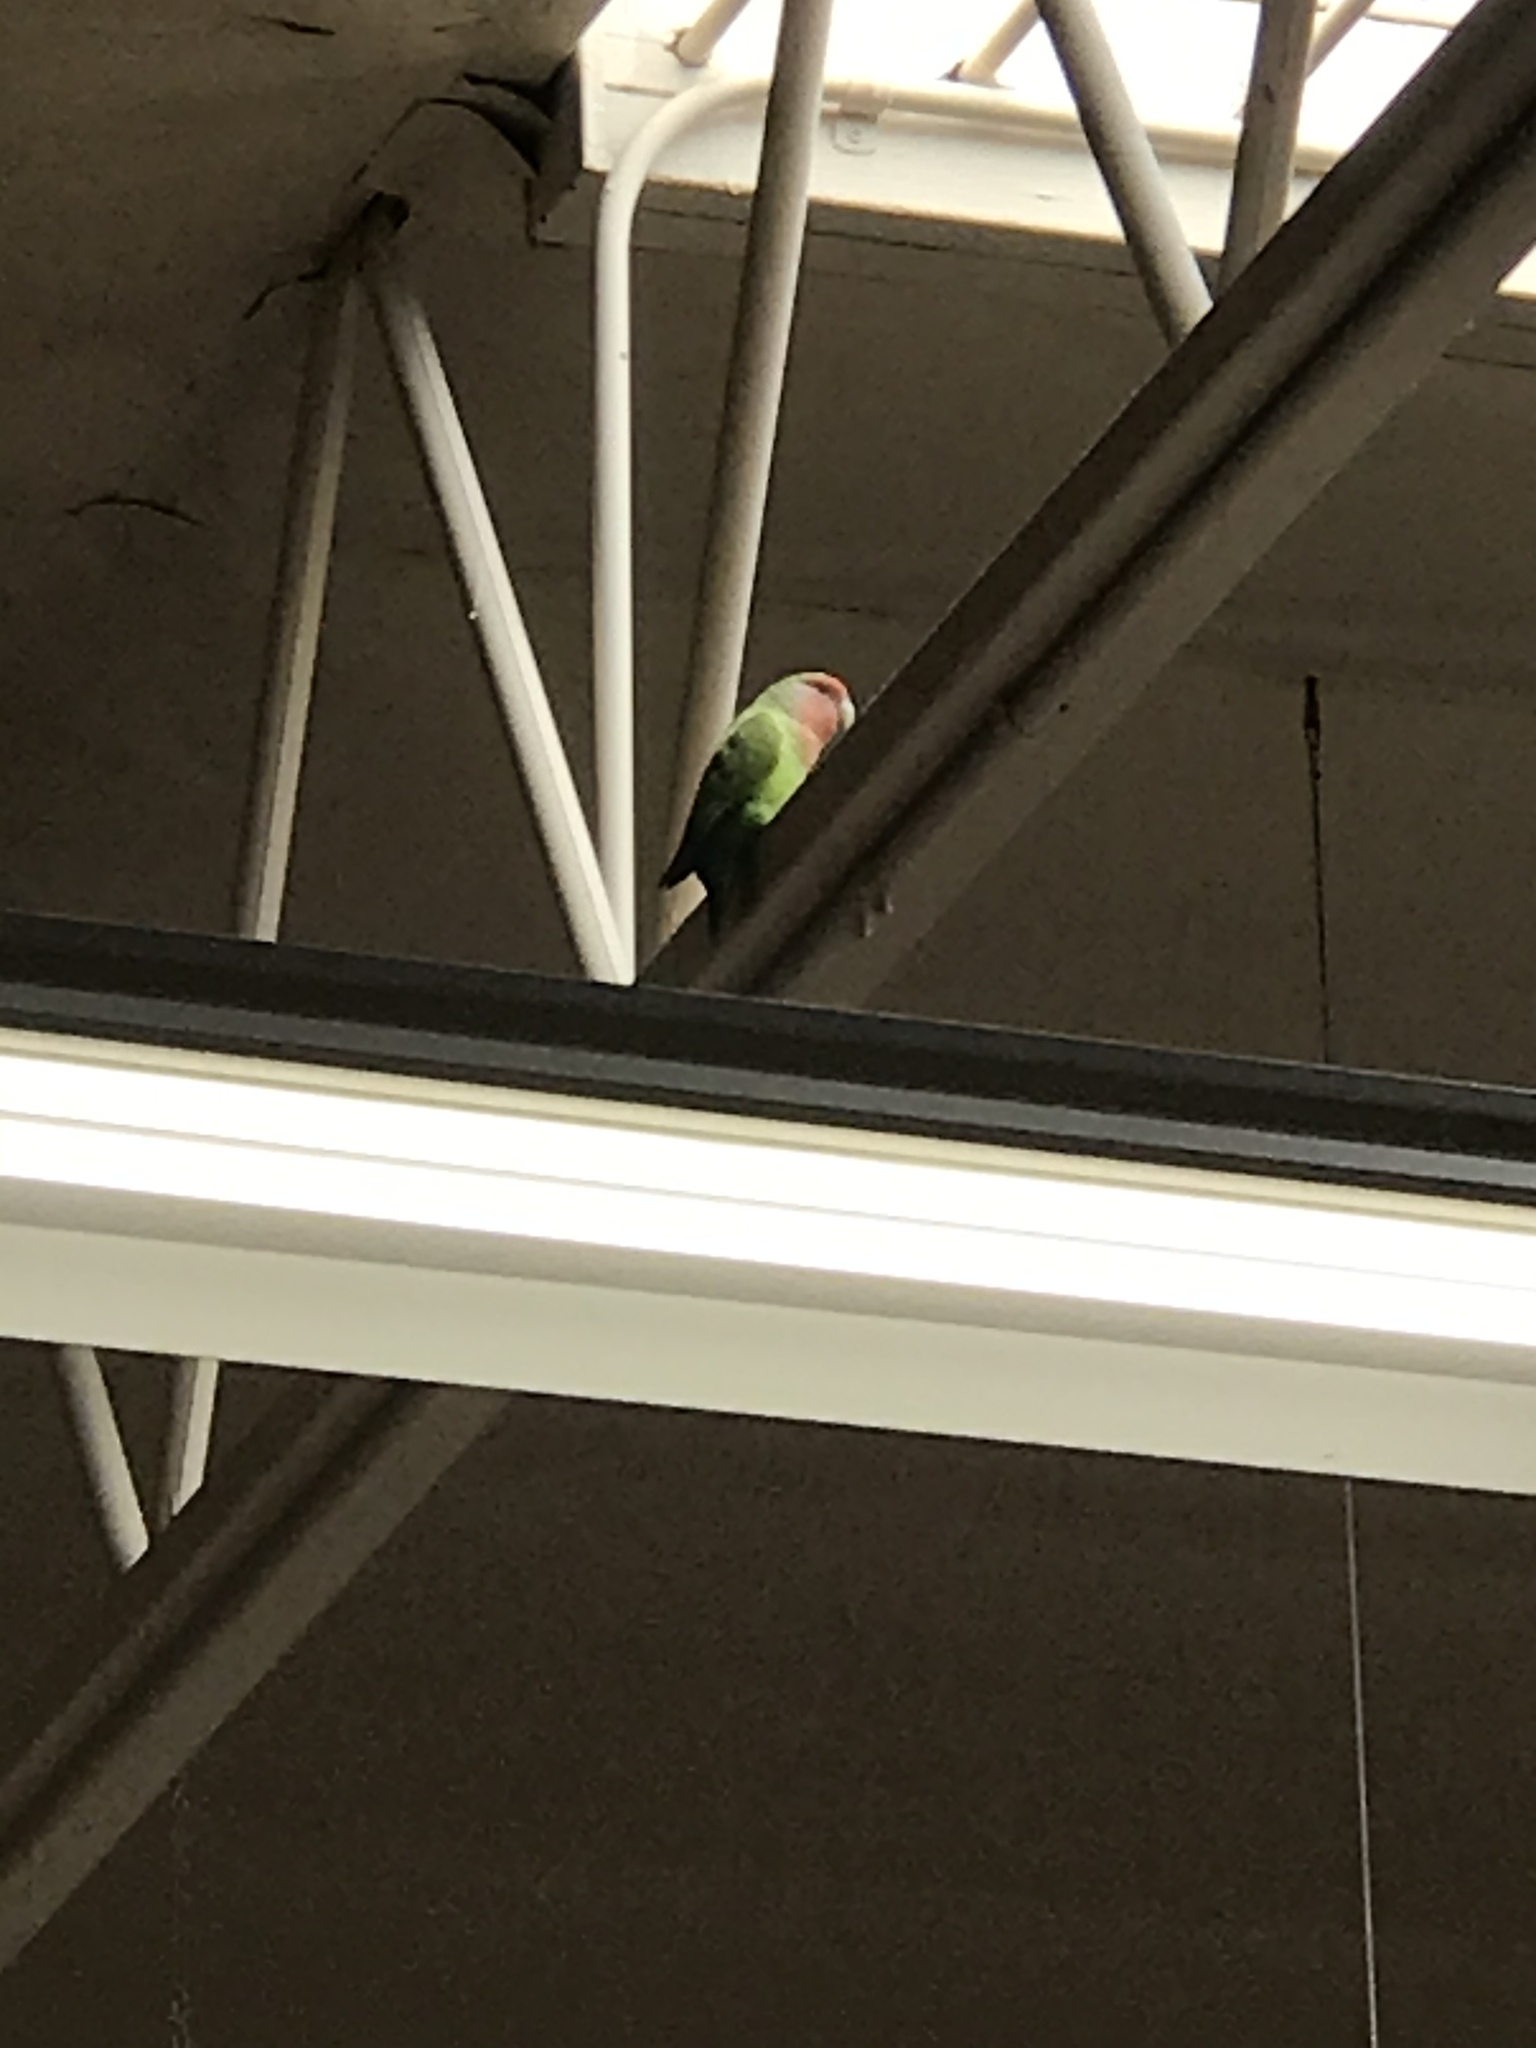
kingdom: Animalia
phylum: Chordata
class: Aves
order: Psittaciformes
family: Psittacidae
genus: Agapornis
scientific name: Agapornis roseicollis
